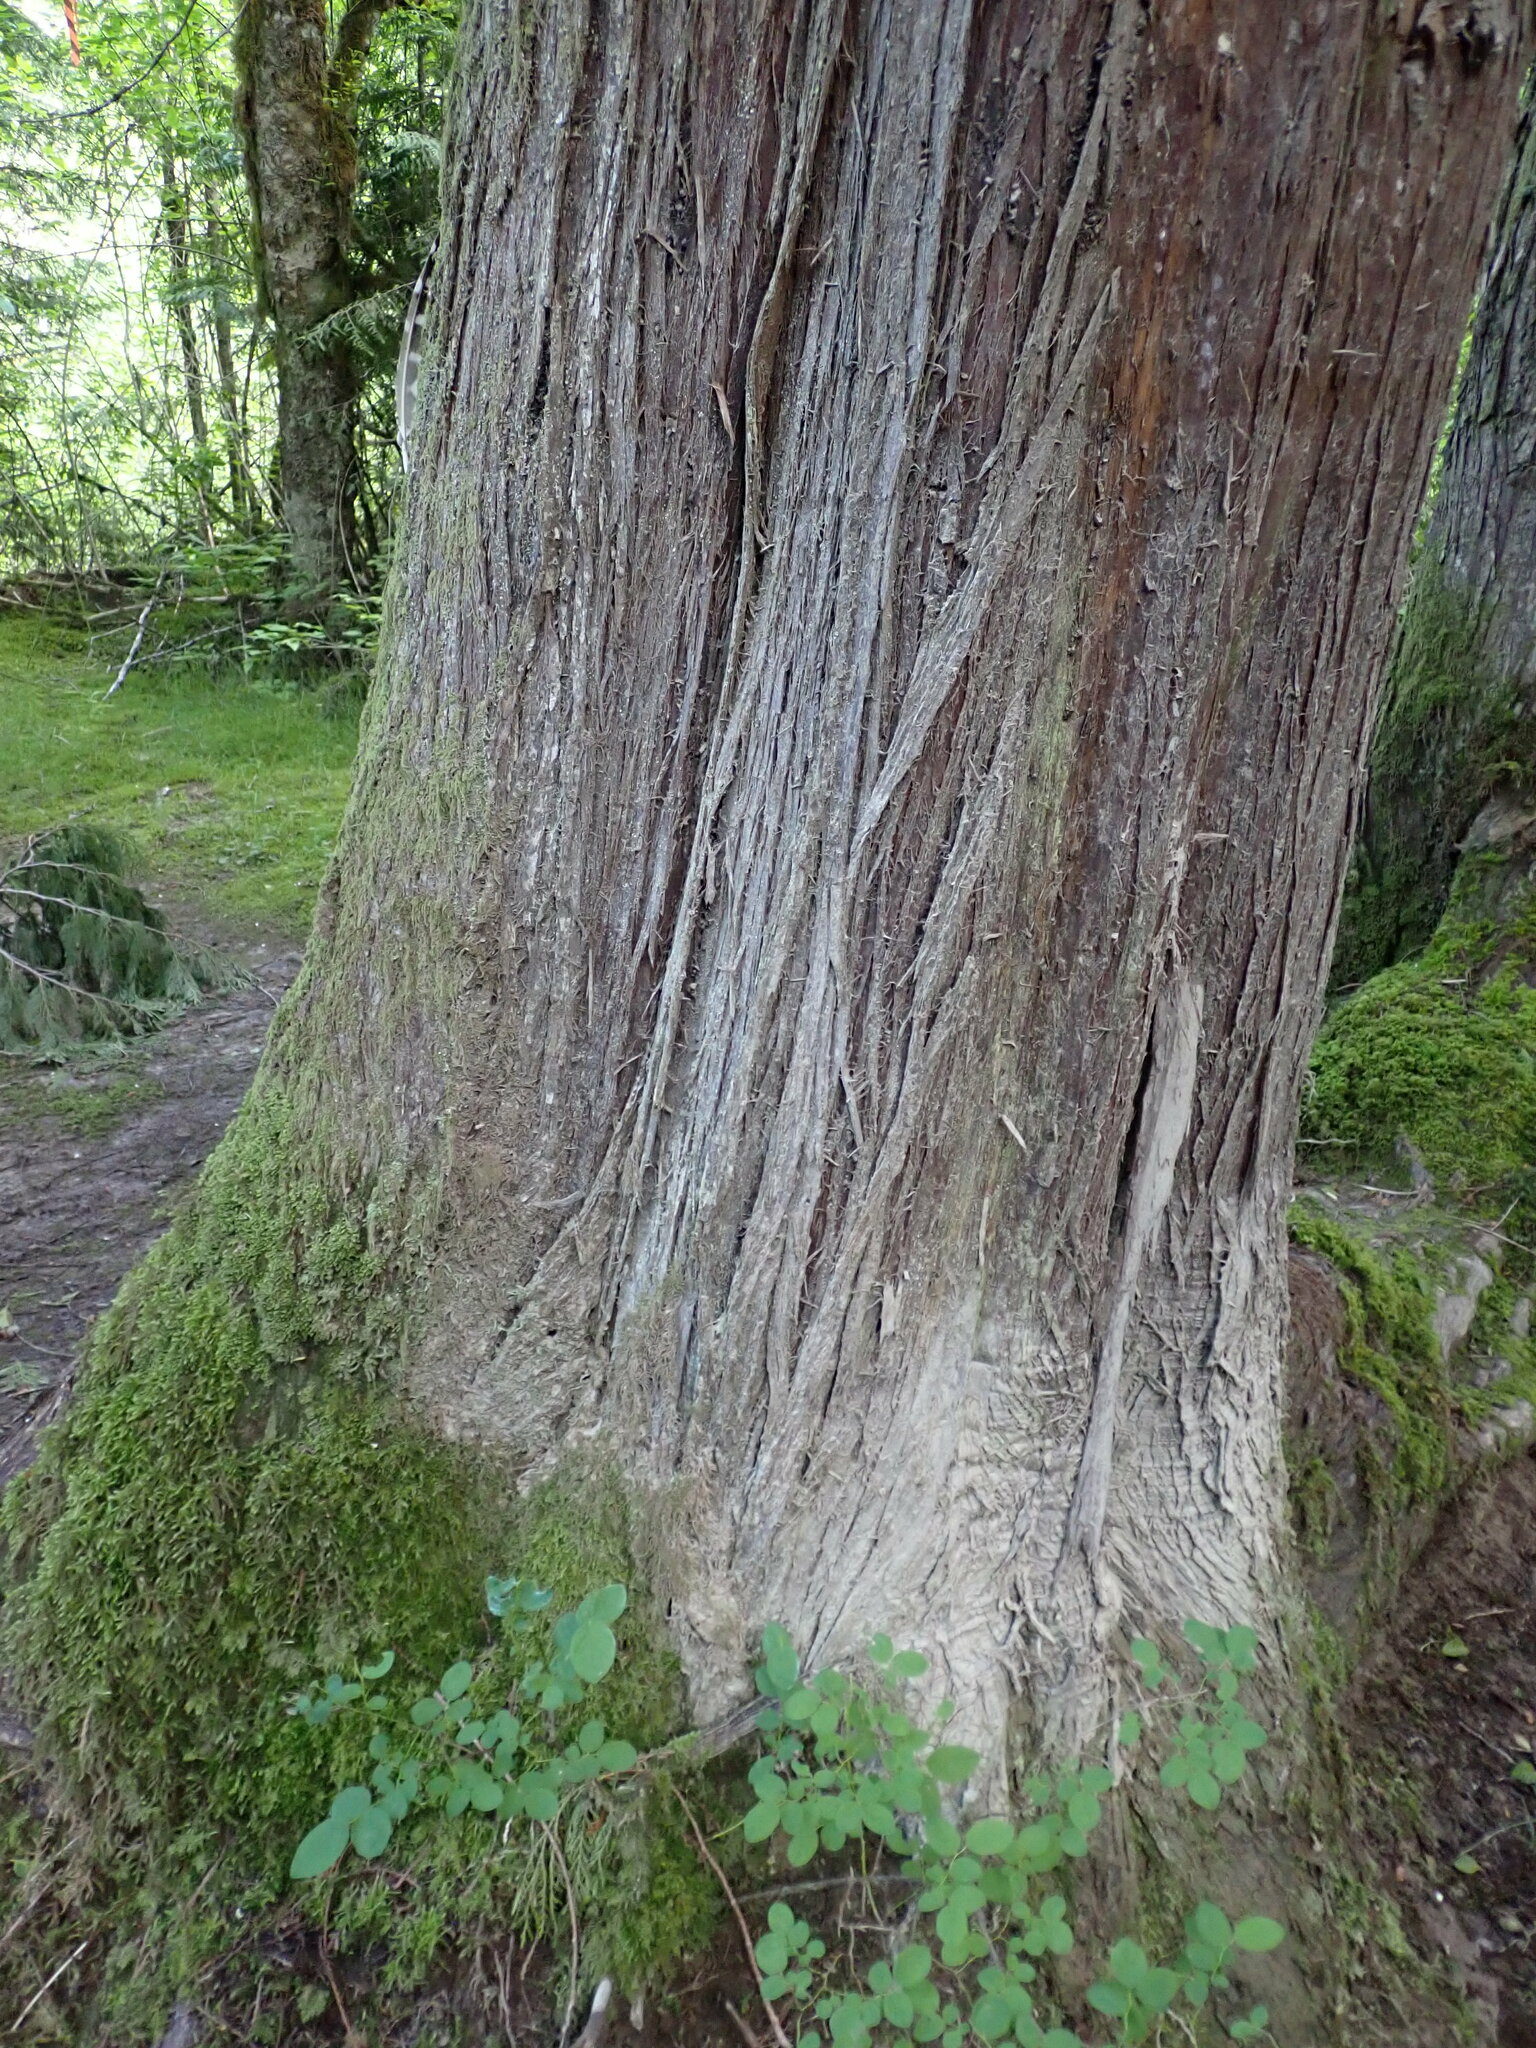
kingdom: Plantae
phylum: Tracheophyta
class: Pinopsida
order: Pinales
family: Cupressaceae
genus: Thuja
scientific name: Thuja plicata
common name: Western red-cedar
